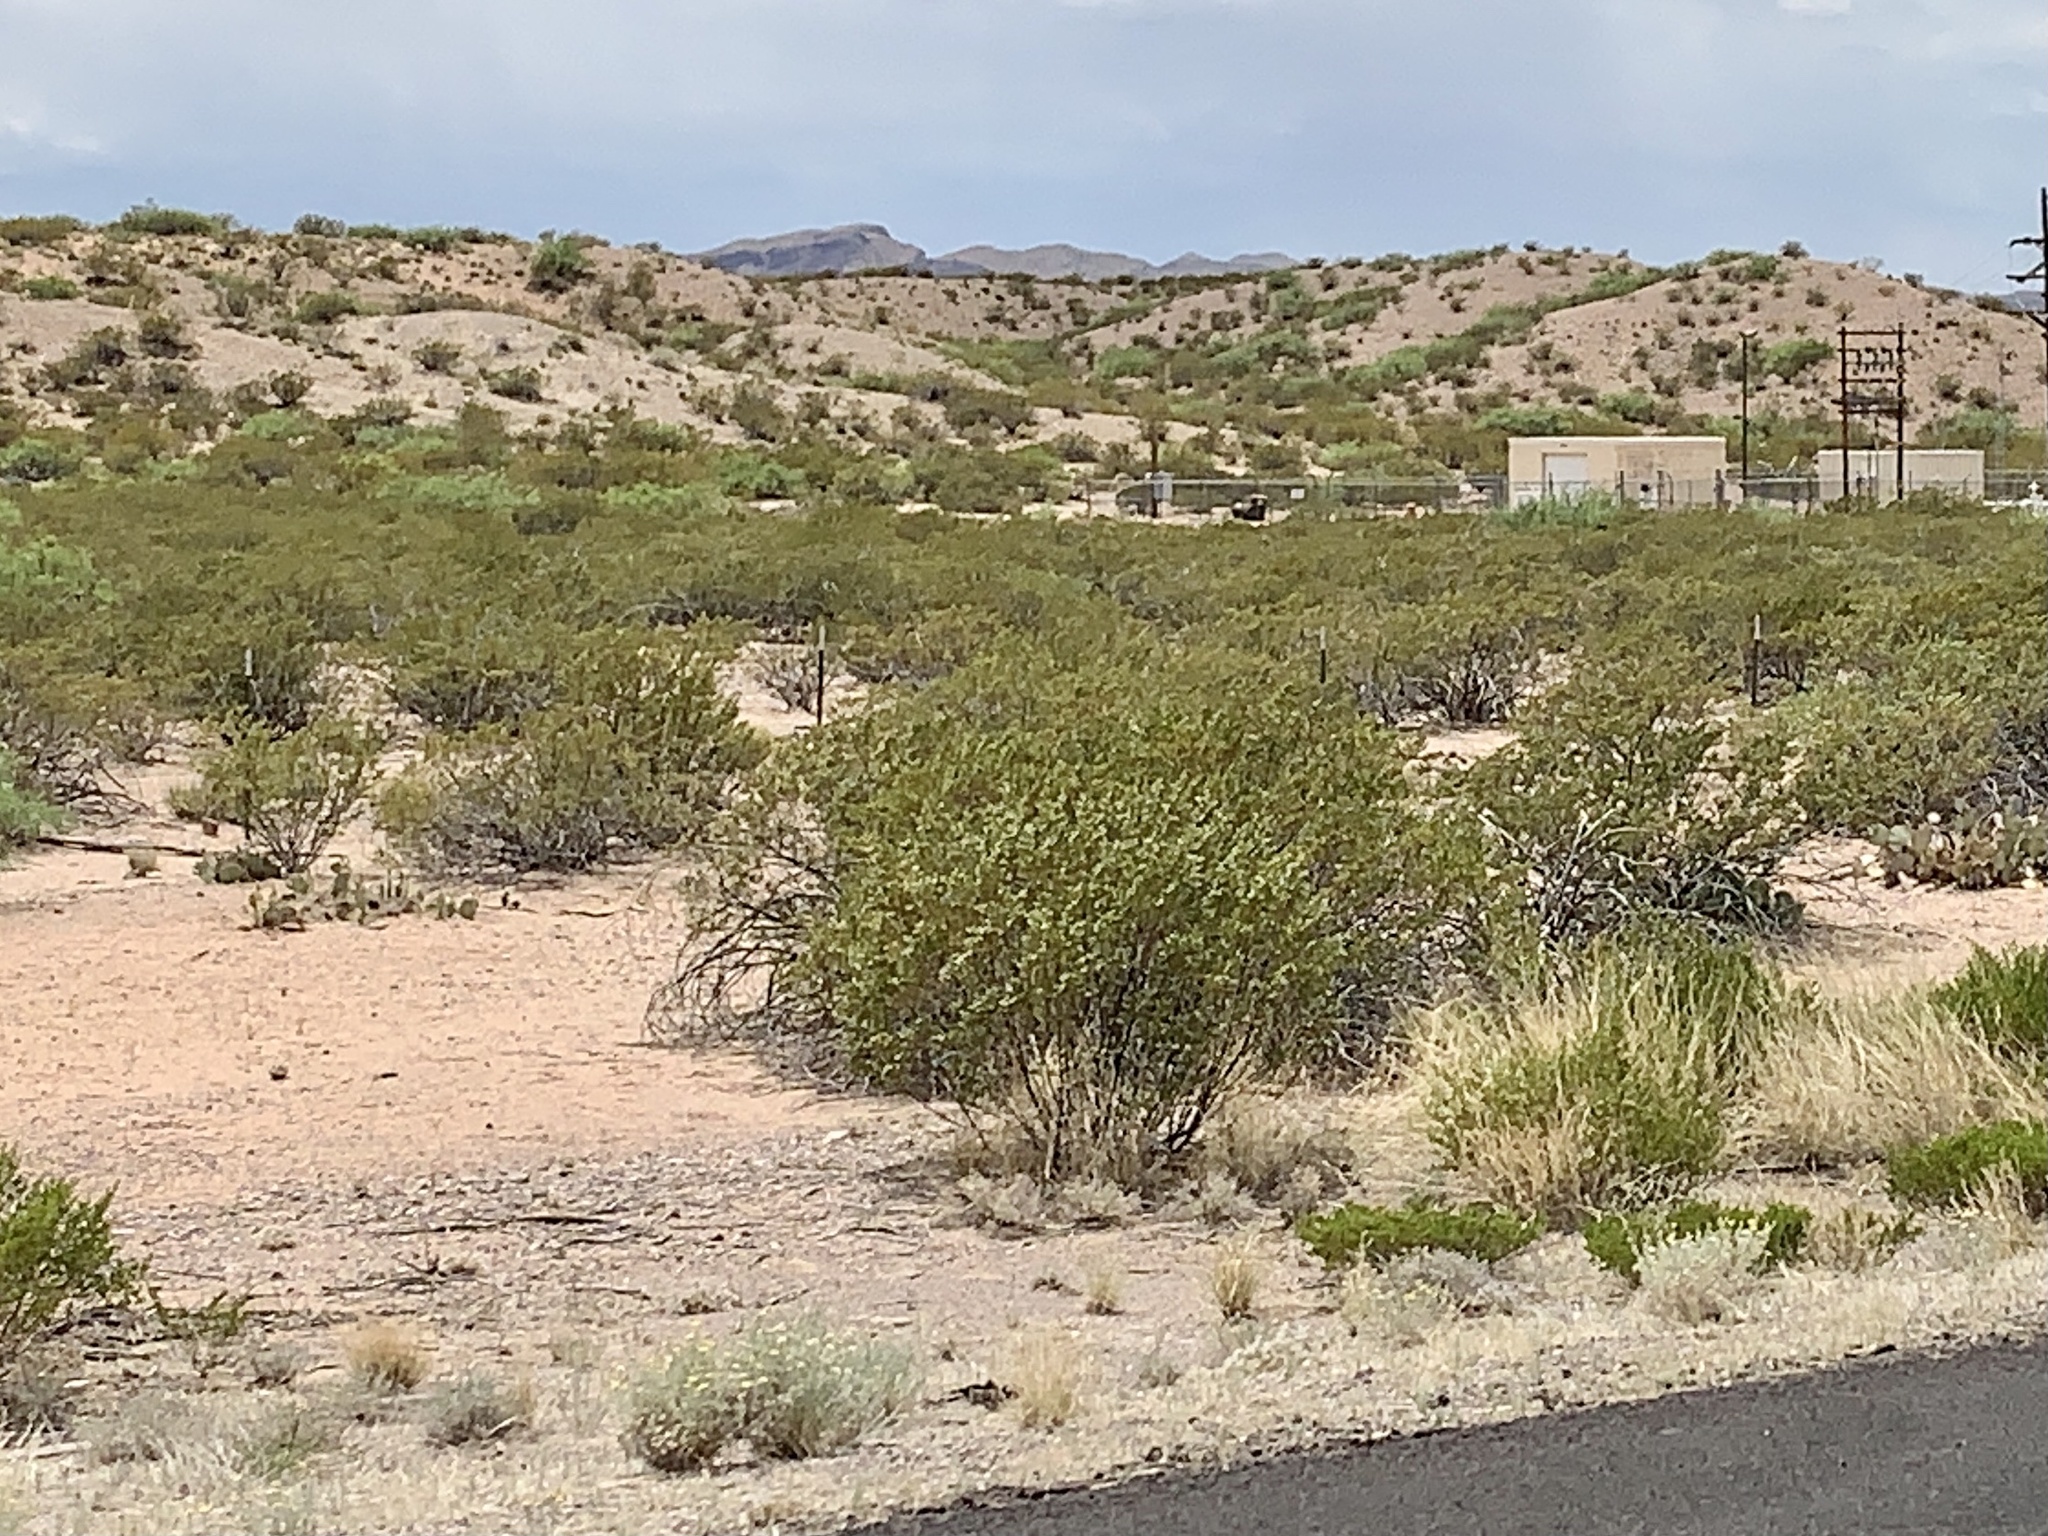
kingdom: Plantae
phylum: Tracheophyta
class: Magnoliopsida
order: Zygophyllales
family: Zygophyllaceae
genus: Larrea
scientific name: Larrea tridentata
